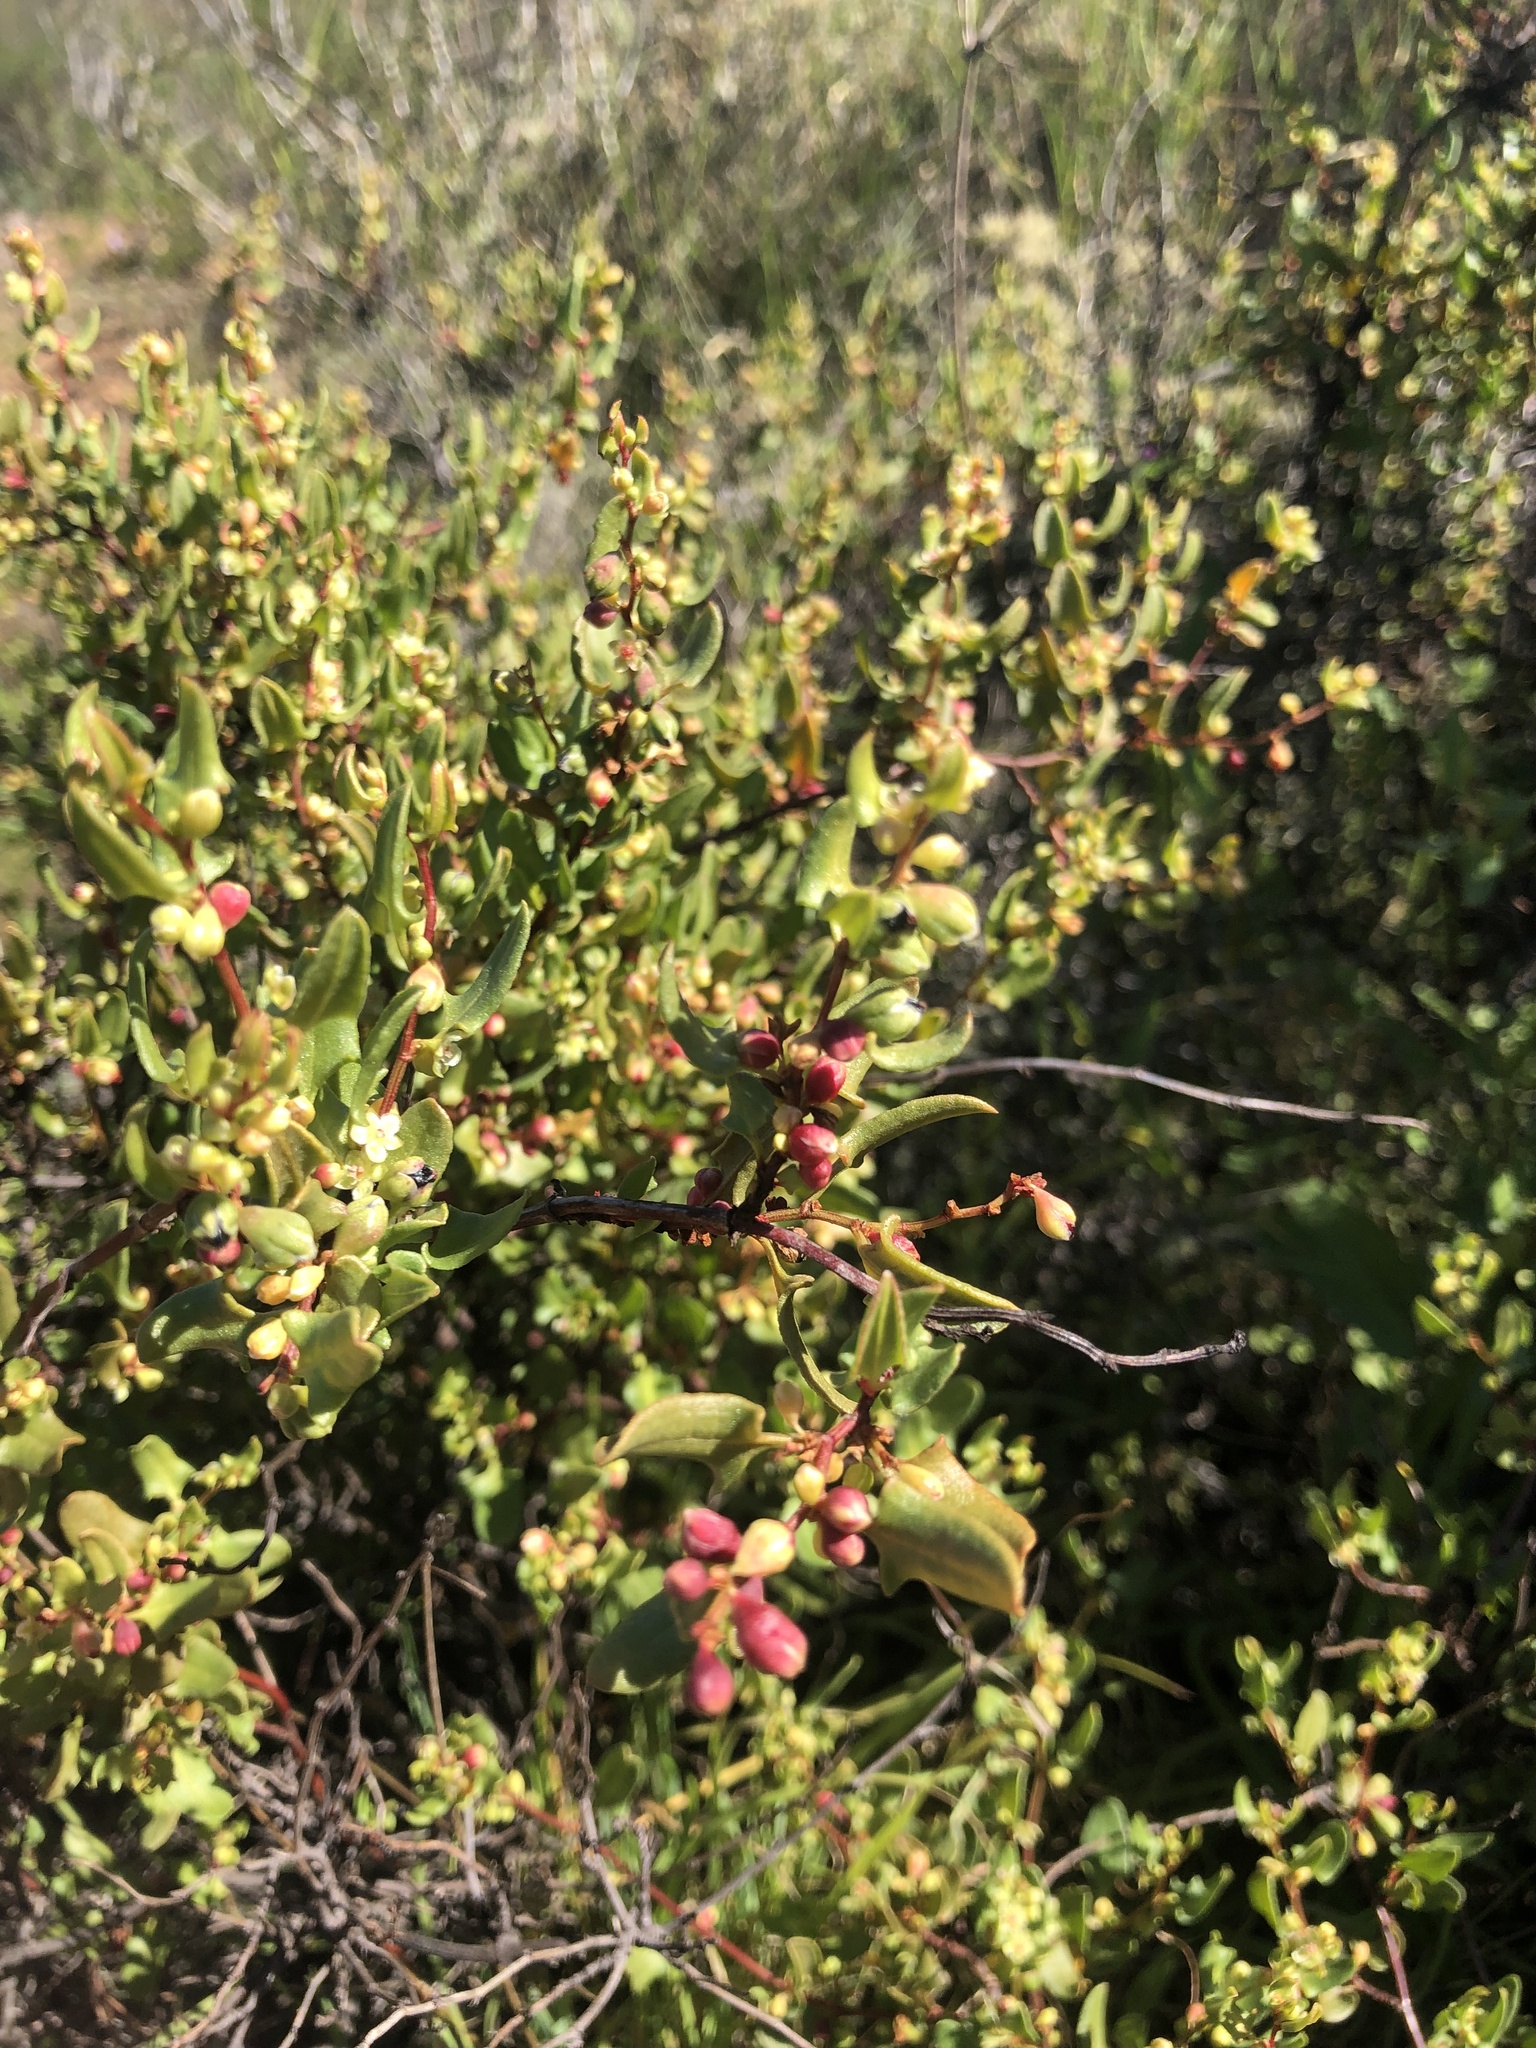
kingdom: Plantae
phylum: Tracheophyta
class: Magnoliopsida
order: Caryophyllales
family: Polygonaceae
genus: Muehlenbeckia
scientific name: Muehlenbeckia hastulata
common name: Wirevine
